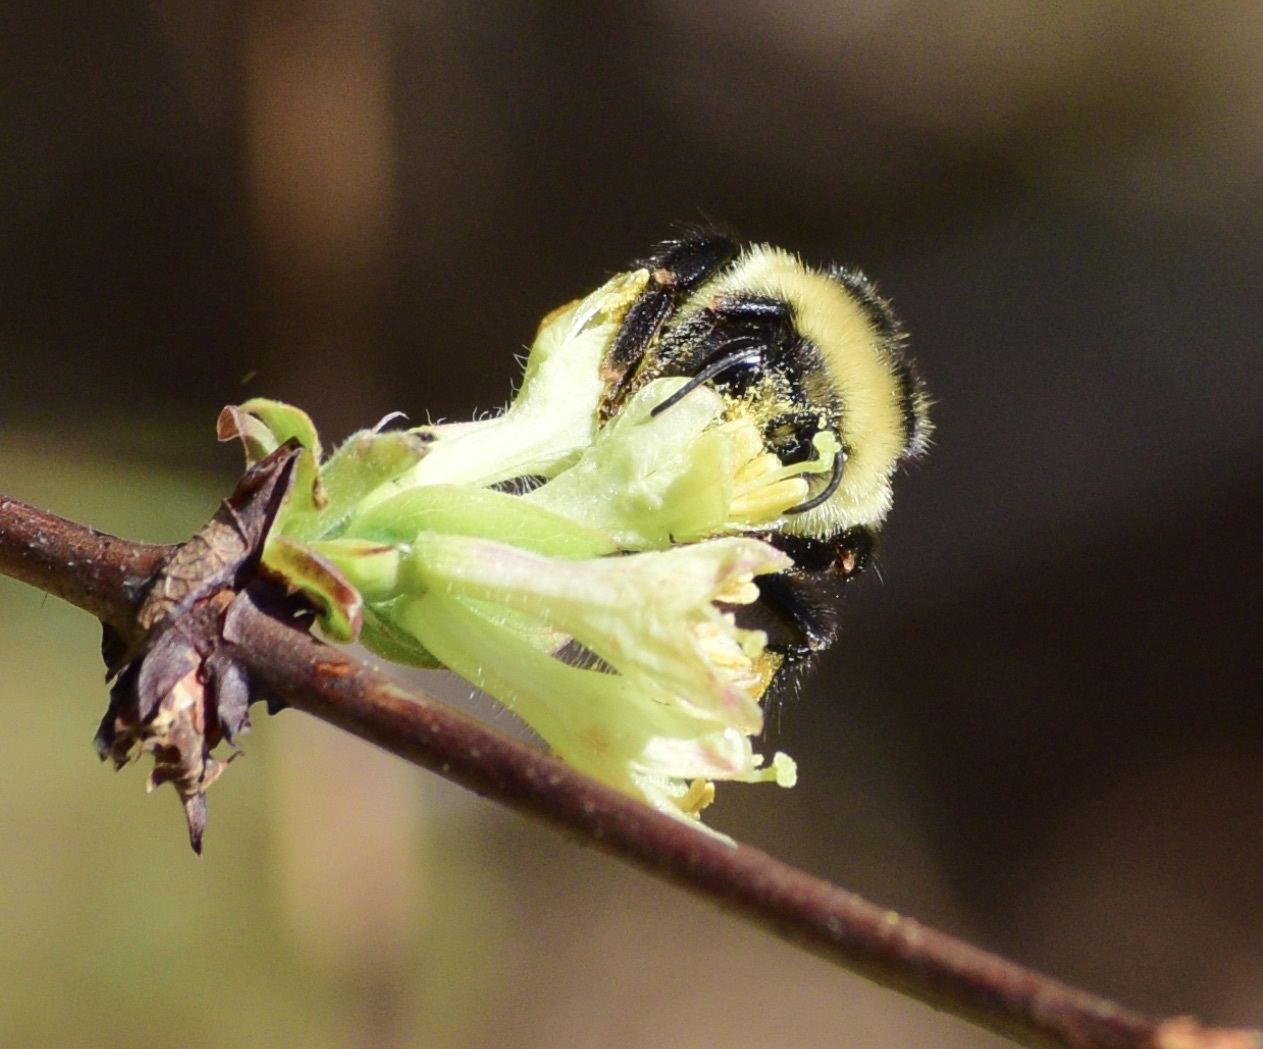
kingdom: Animalia
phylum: Arthropoda
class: Insecta
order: Hymenoptera
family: Apidae
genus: Bombus
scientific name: Bombus ternarius
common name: Tri-colored bumble bee
